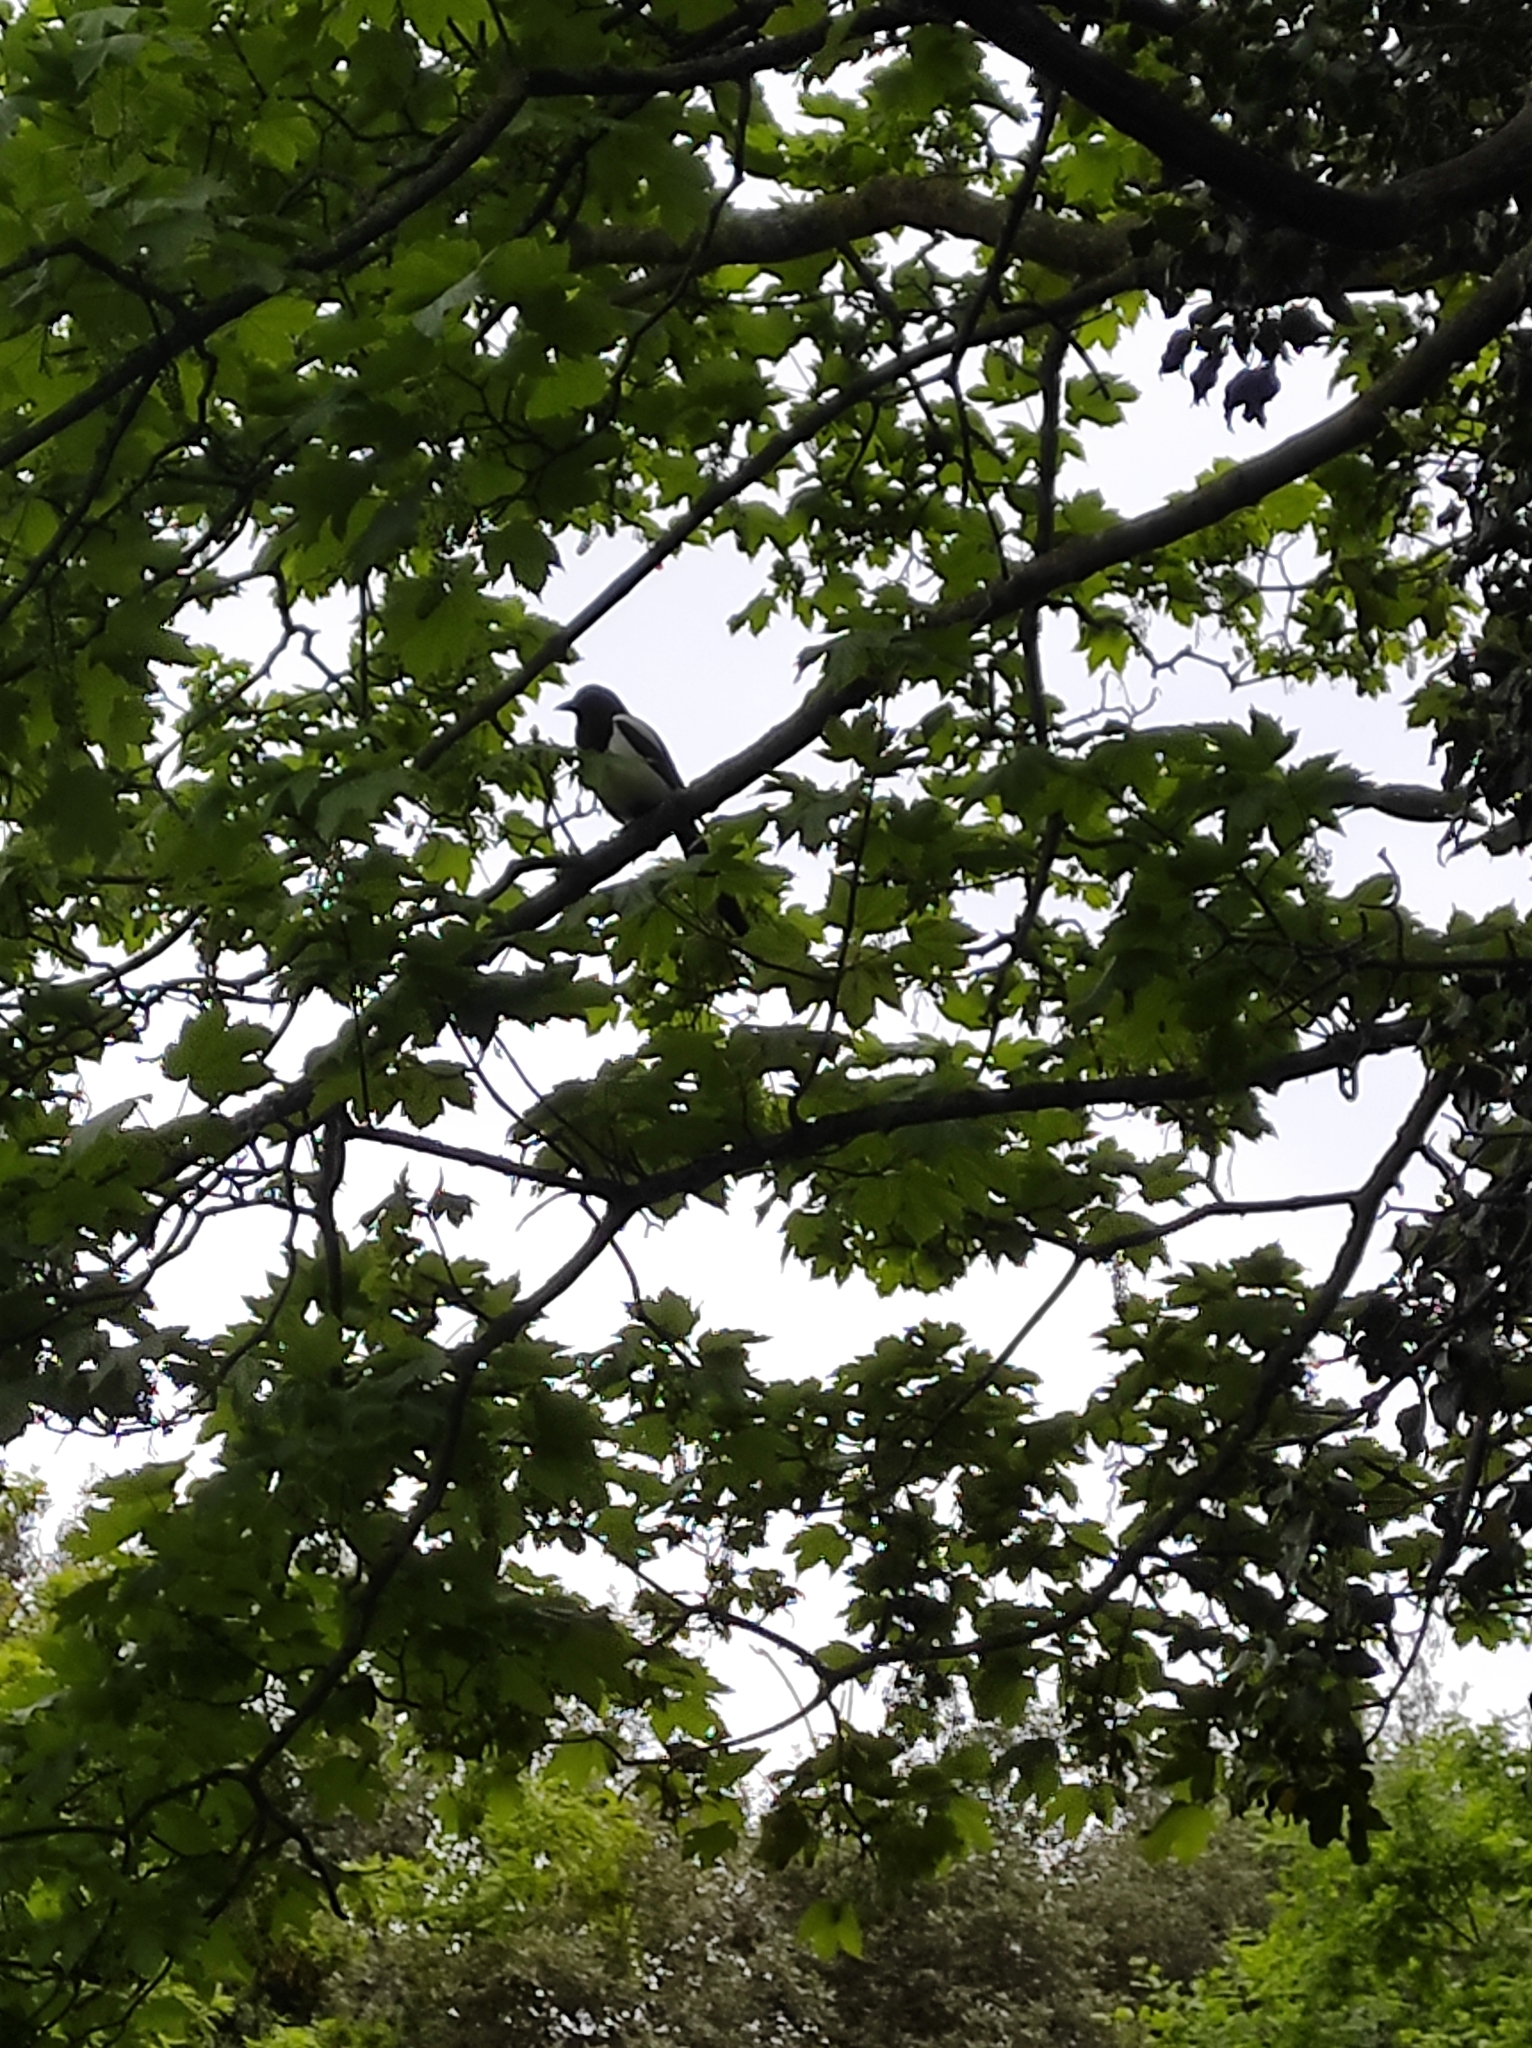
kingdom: Animalia
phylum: Chordata
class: Aves
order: Passeriformes
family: Corvidae
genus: Pica
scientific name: Pica pica
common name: Eurasian magpie
